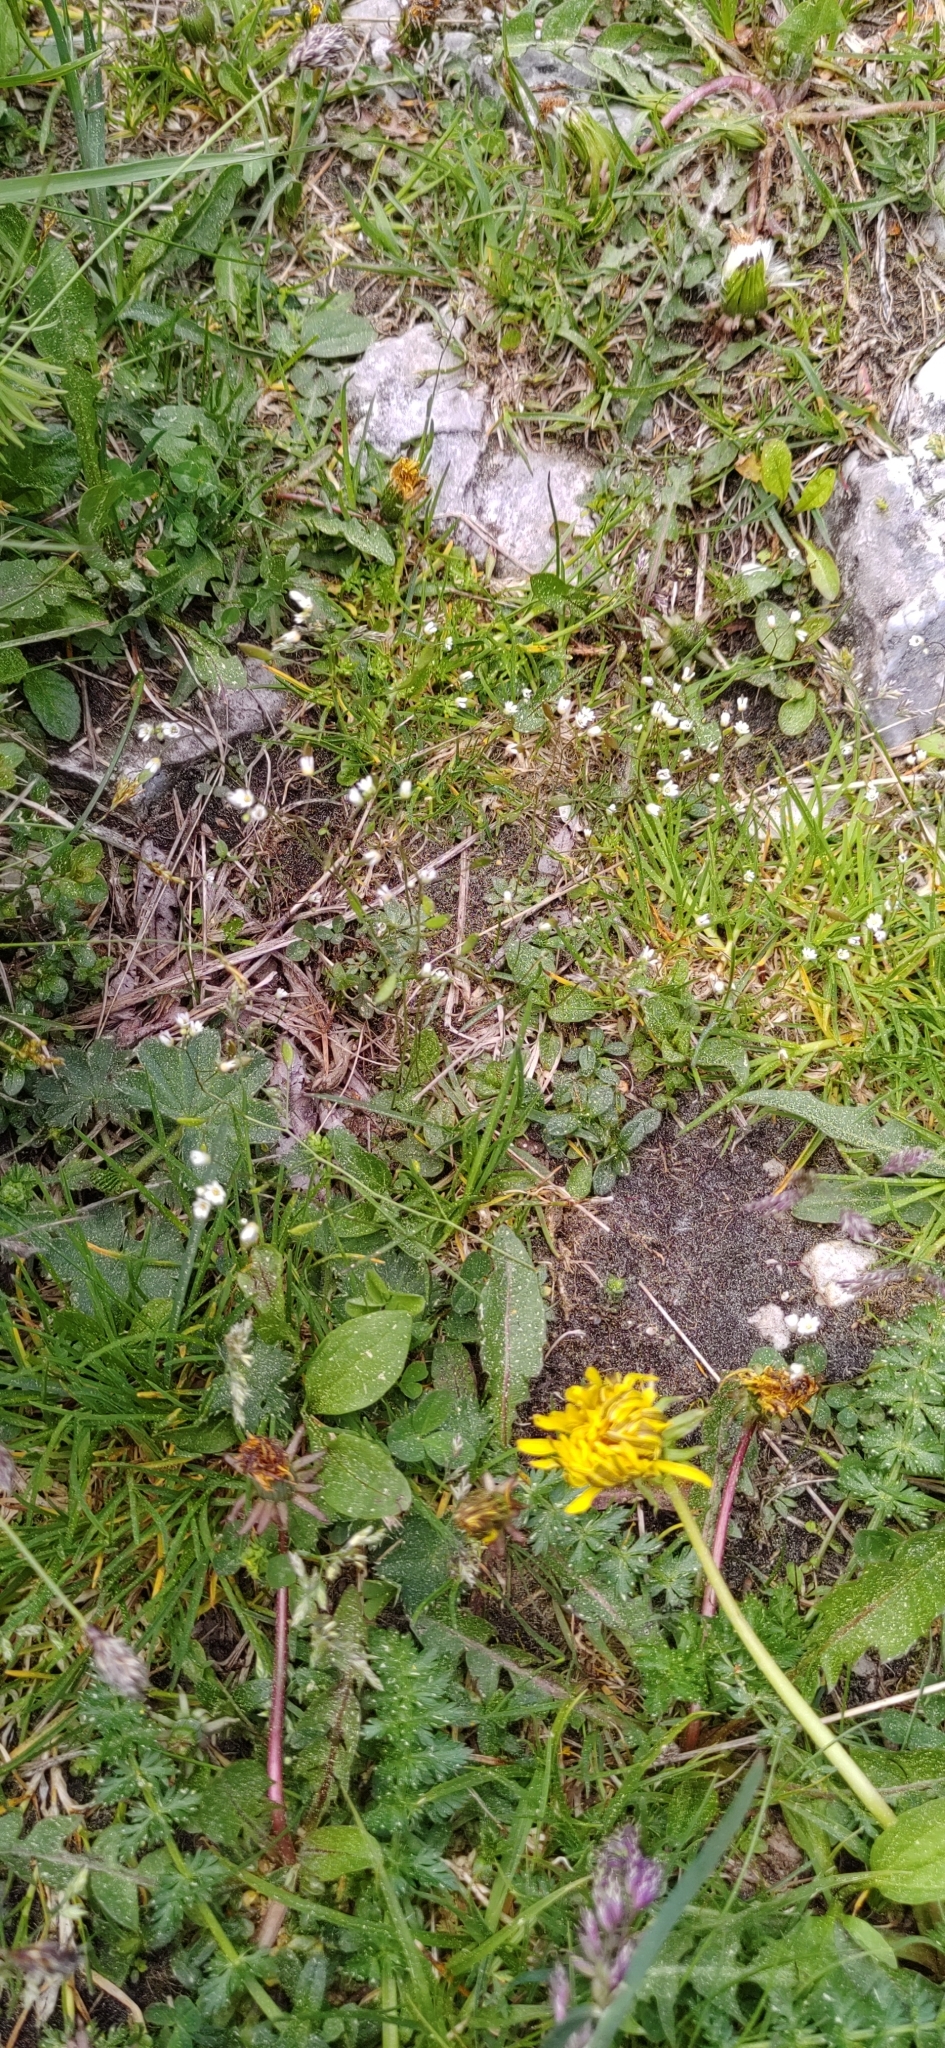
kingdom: Plantae
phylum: Tracheophyta
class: Magnoliopsida
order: Brassicales
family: Brassicaceae
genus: Draba
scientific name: Draba verna
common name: Spring draba
